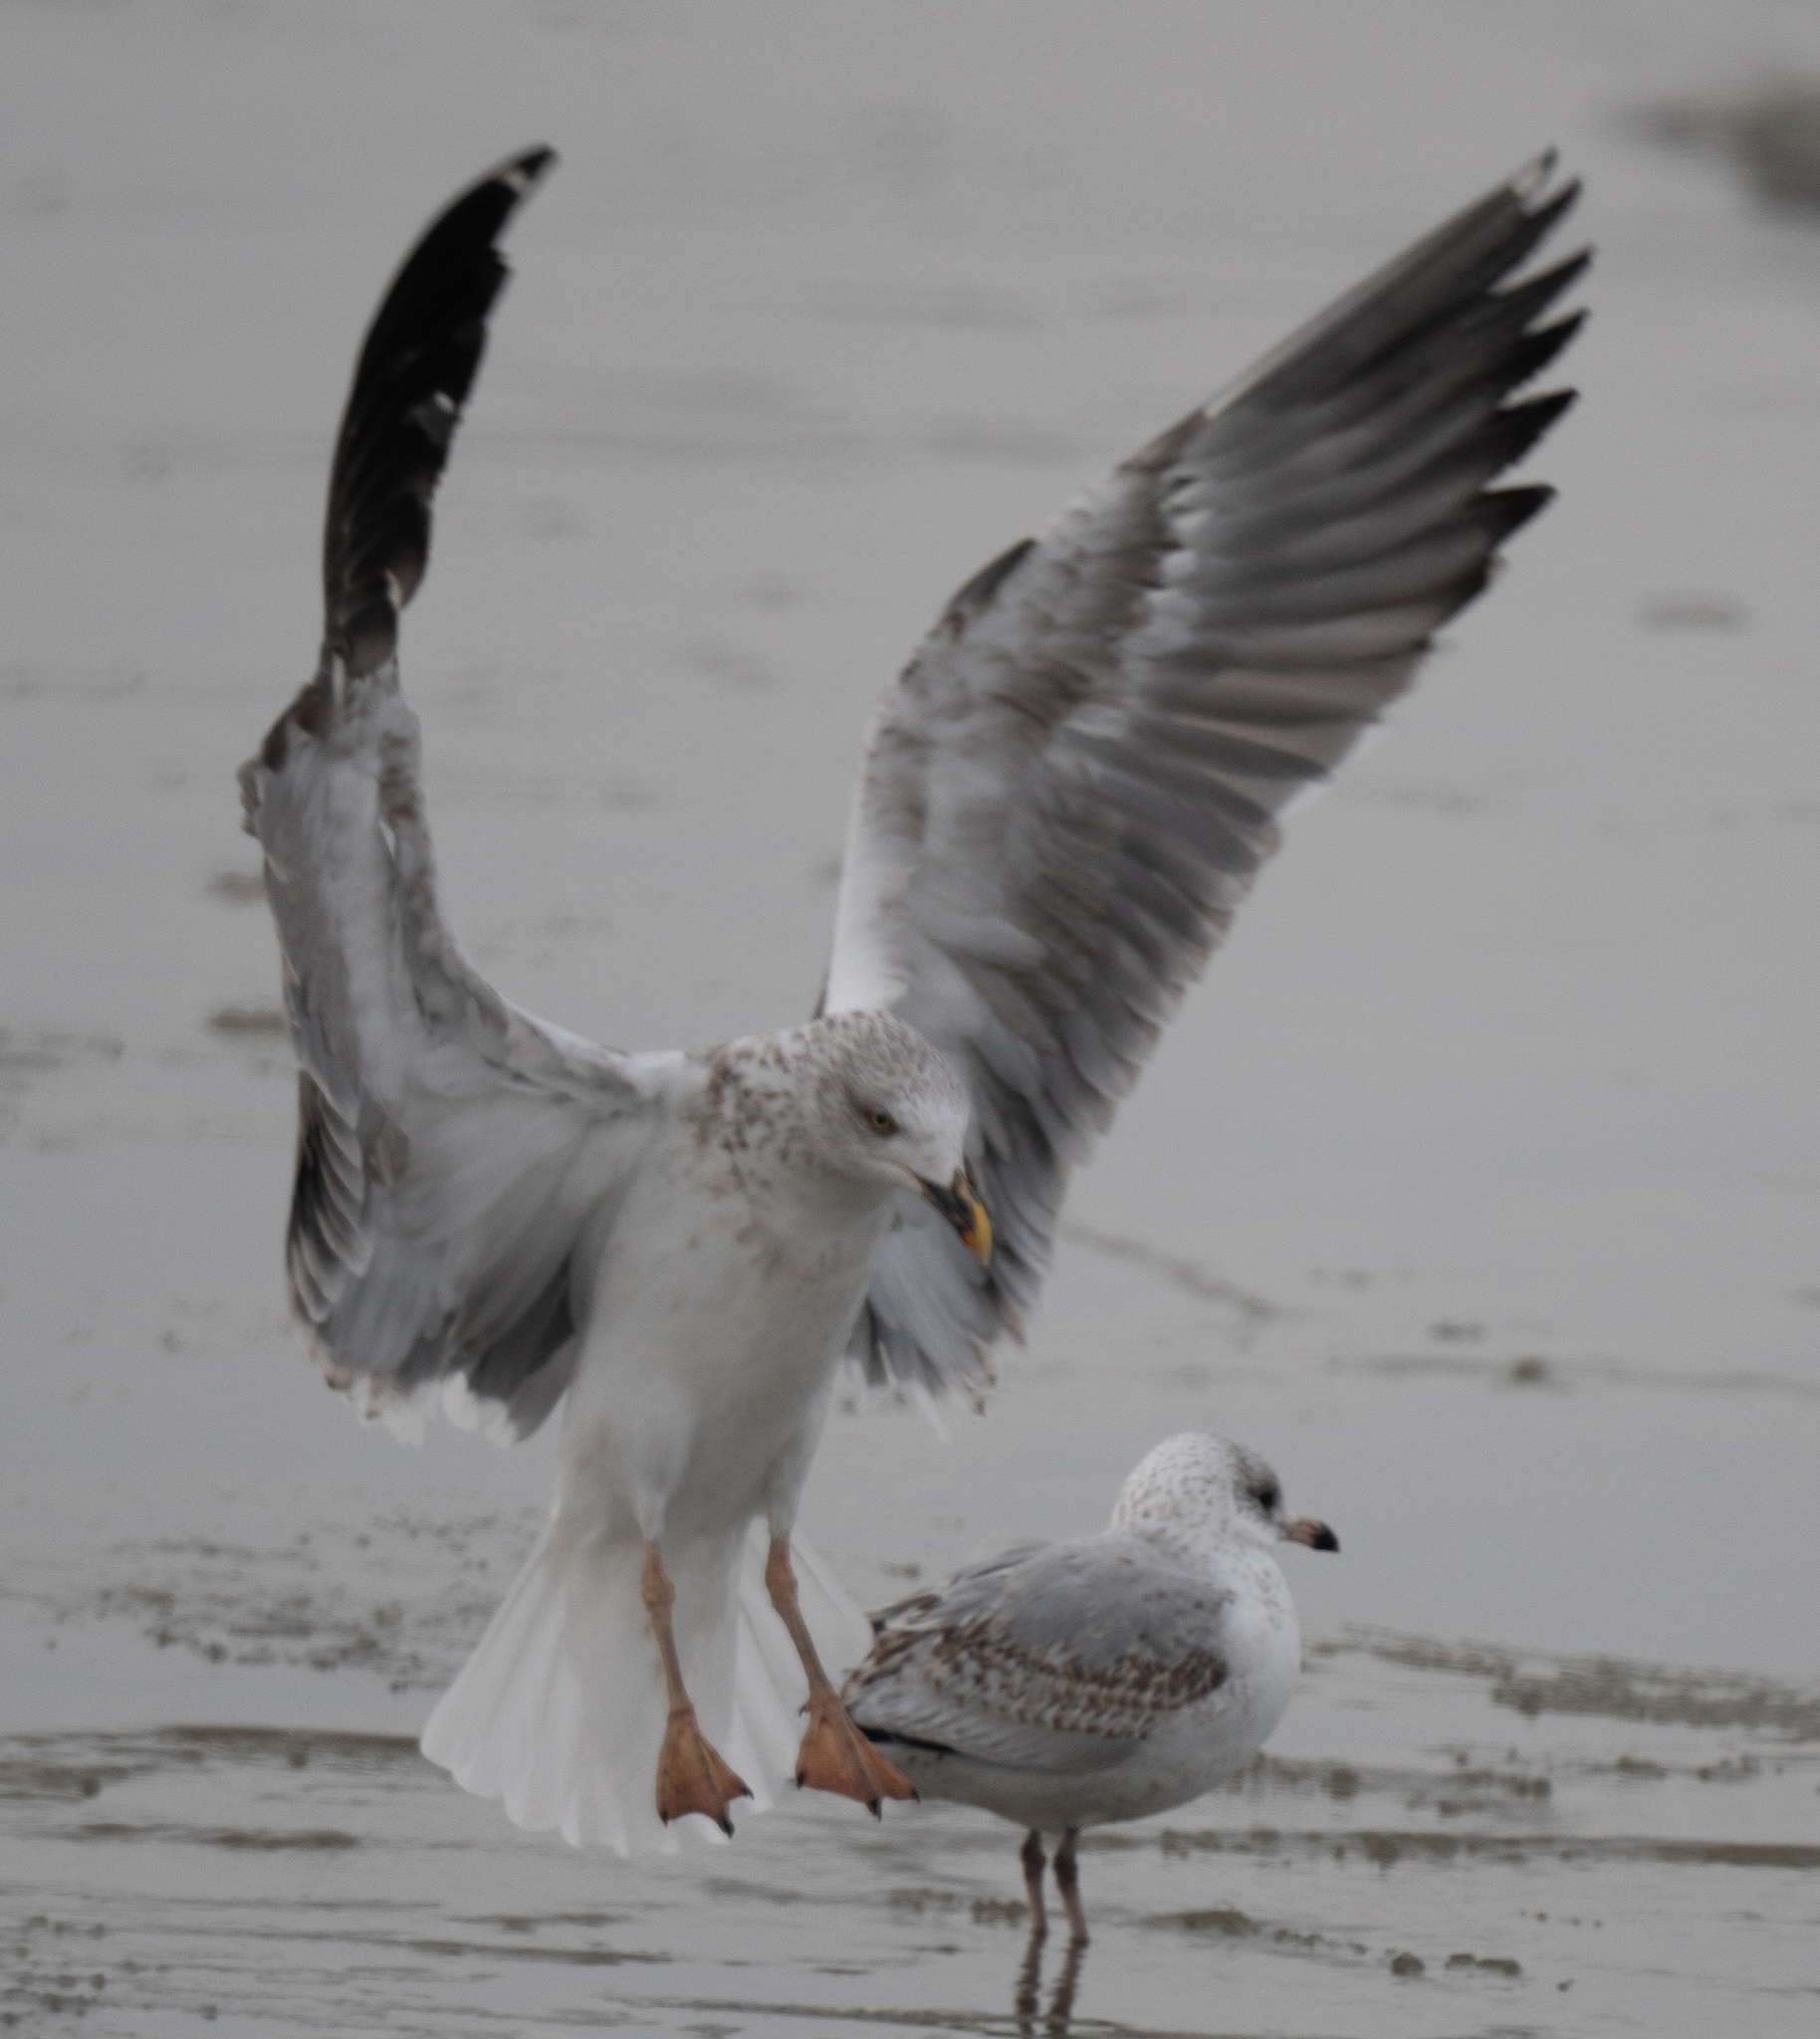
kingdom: Animalia
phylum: Chordata
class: Aves
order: Charadriiformes
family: Laridae
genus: Larus
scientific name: Larus fuscus
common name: Lesser black-backed gull
